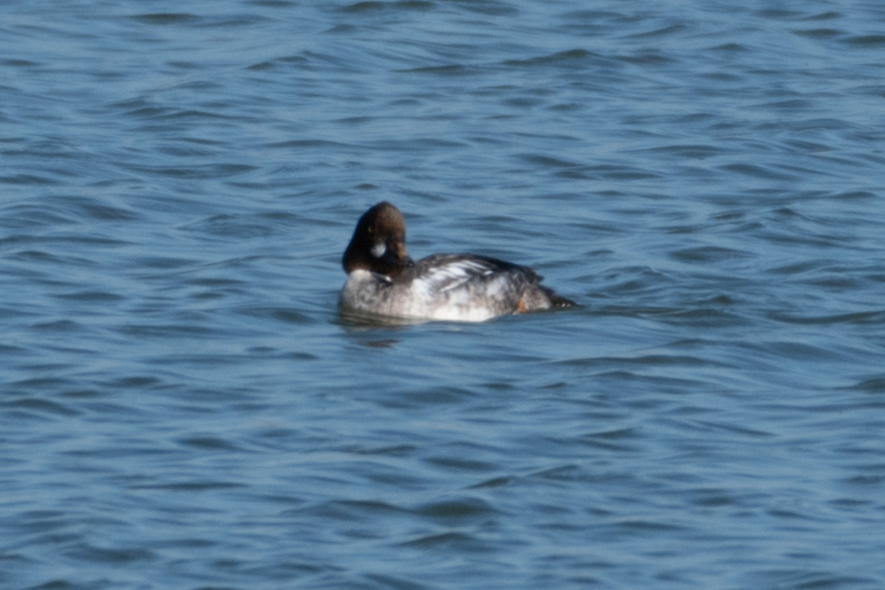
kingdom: Animalia
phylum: Chordata
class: Aves
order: Anseriformes
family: Anatidae
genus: Bucephala
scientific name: Bucephala clangula
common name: Common goldeneye
